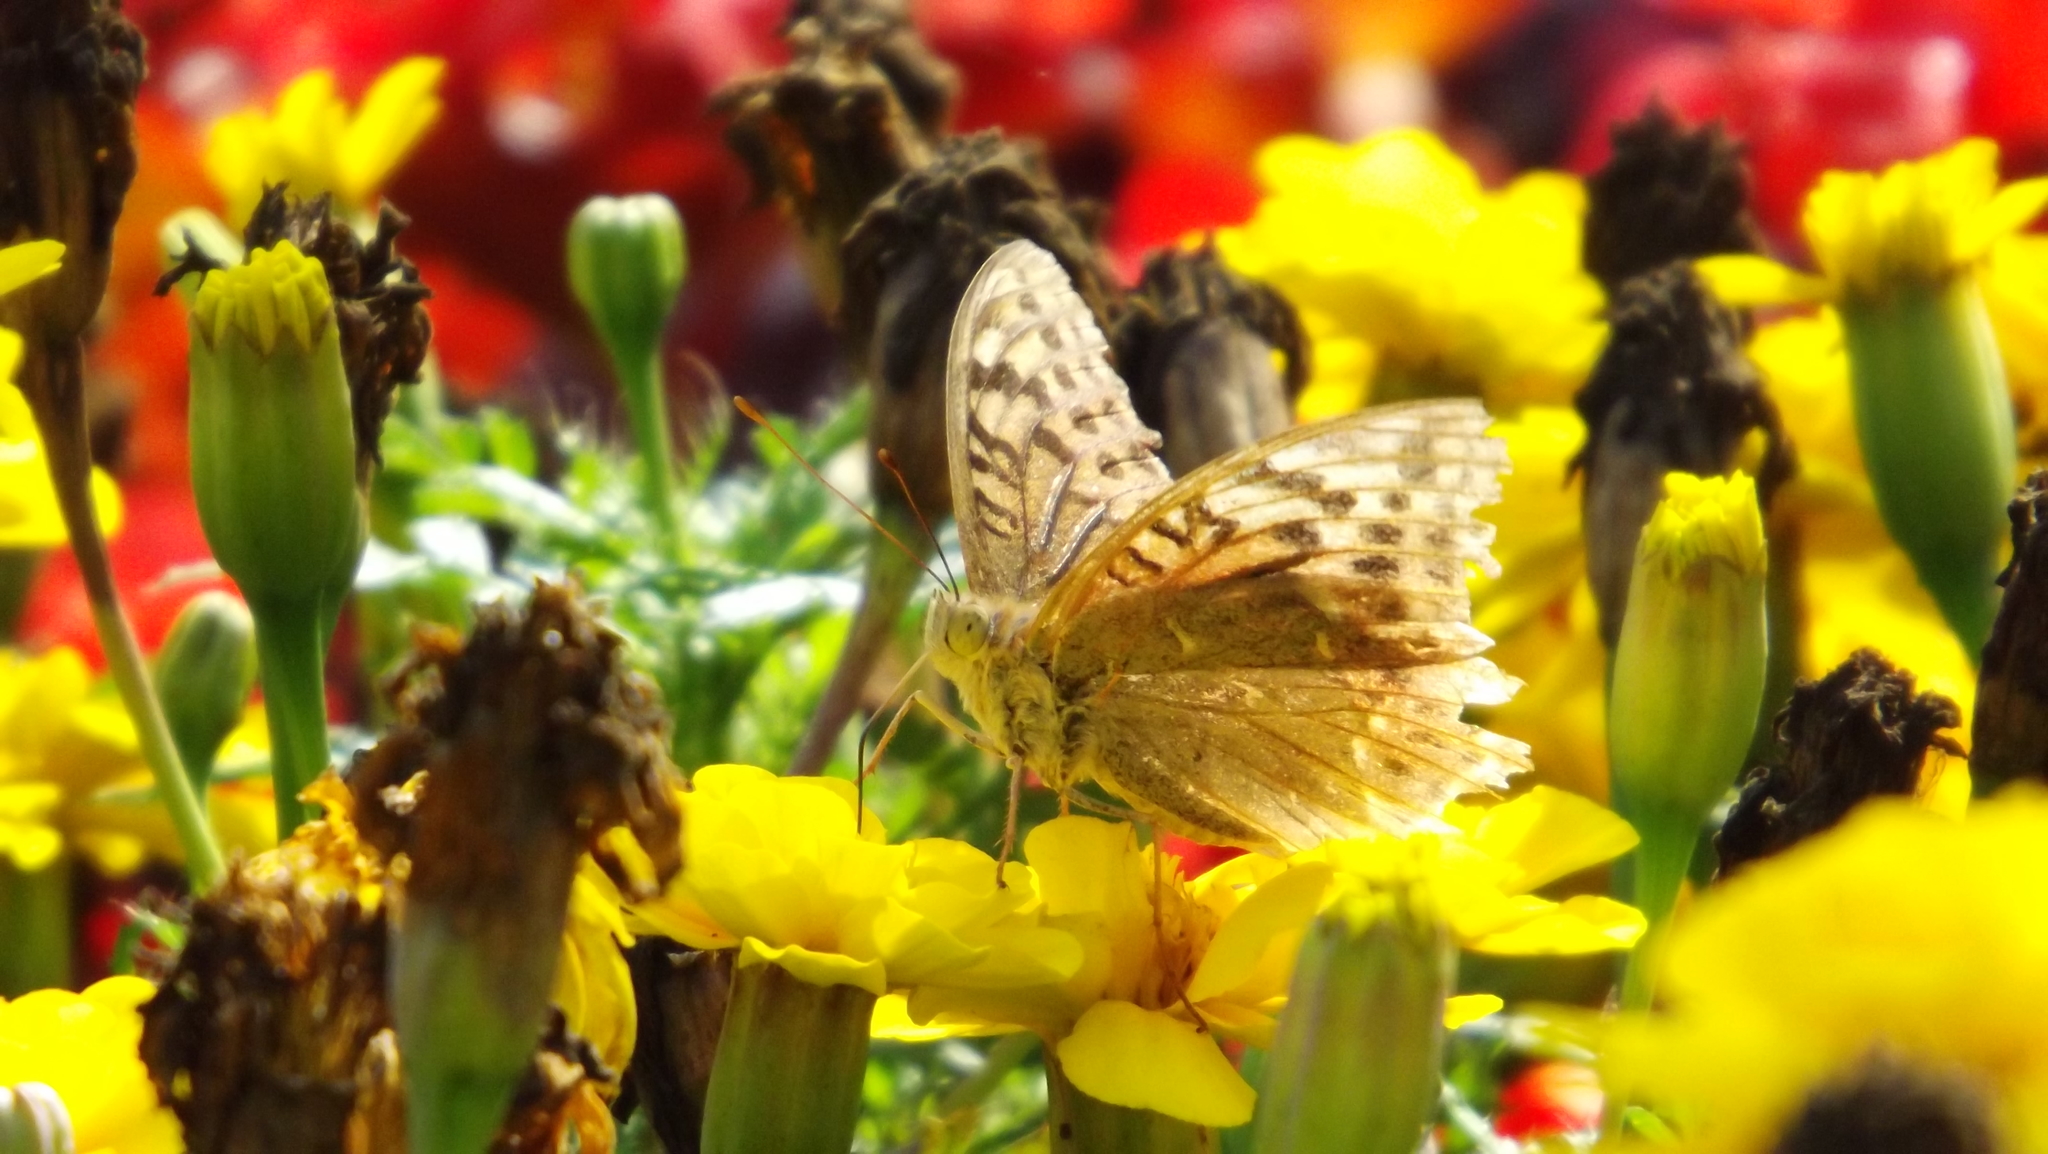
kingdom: Animalia
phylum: Arthropoda
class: Insecta
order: Lepidoptera
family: Nymphalidae
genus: Damora
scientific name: Damora pandora
